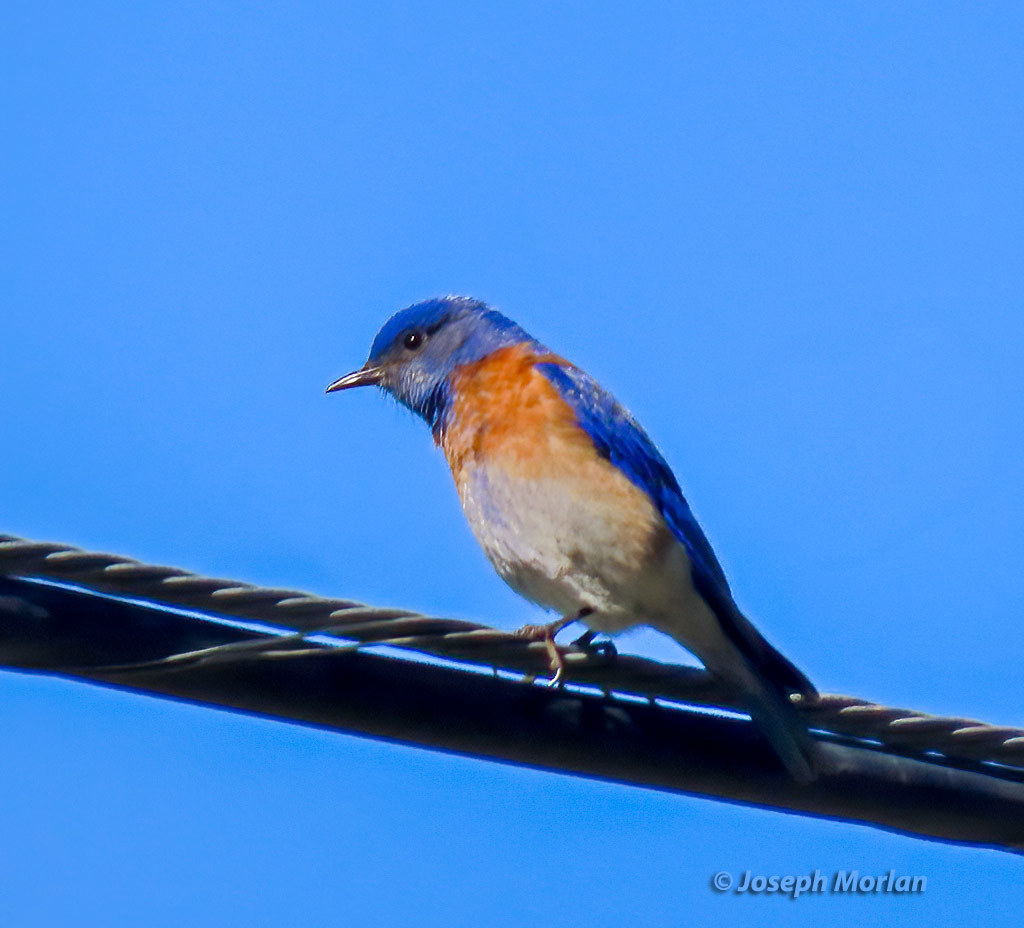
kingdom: Animalia
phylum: Chordata
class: Aves
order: Passeriformes
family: Turdidae
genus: Sialia
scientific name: Sialia mexicana
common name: Western bluebird
